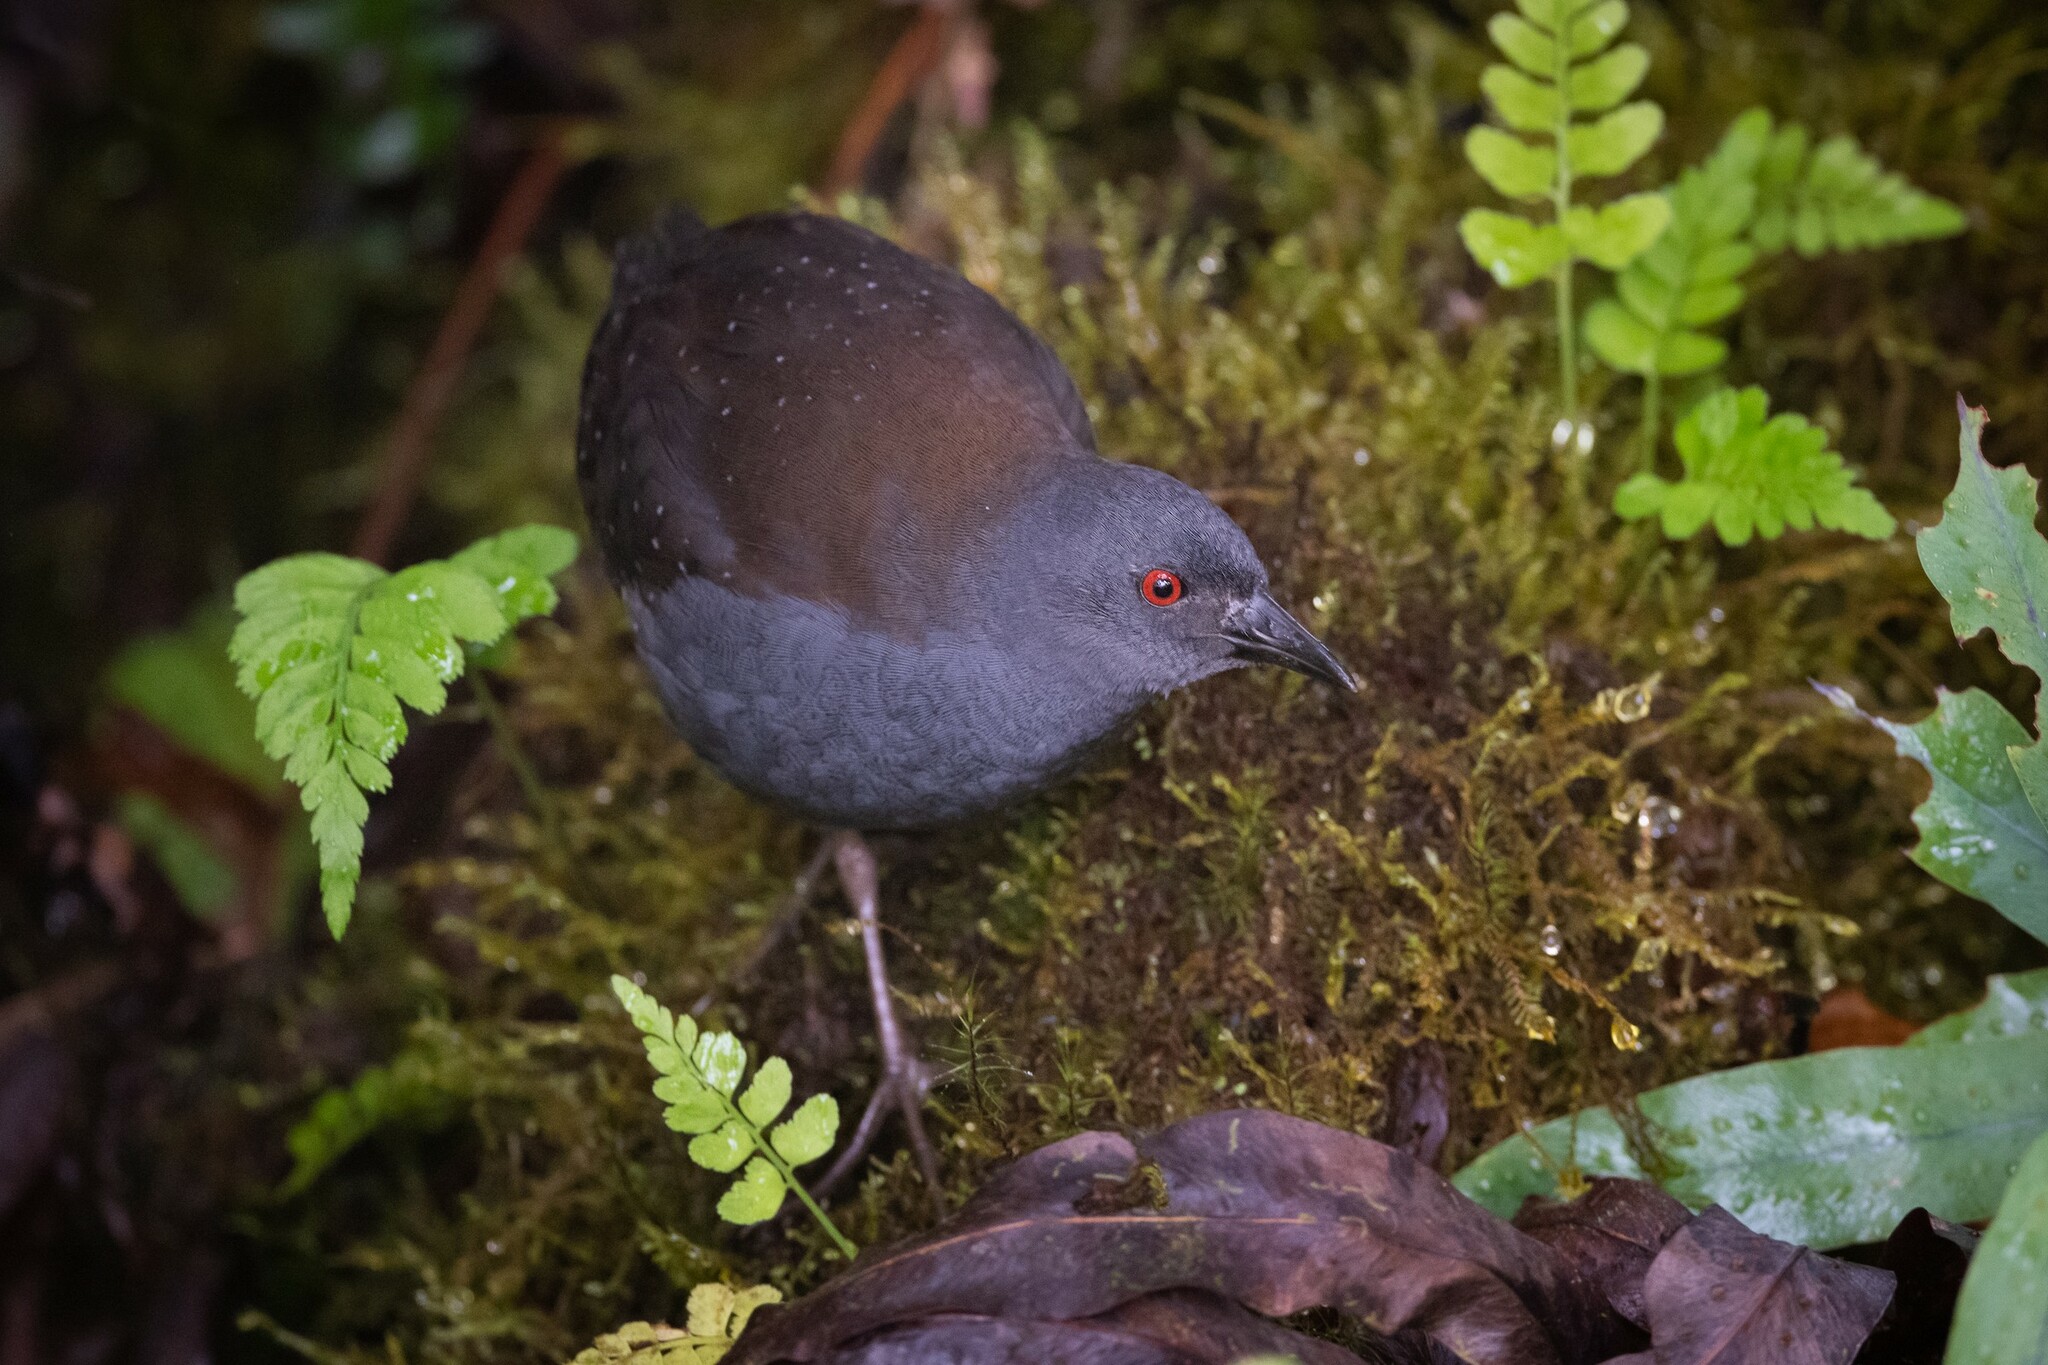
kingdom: Animalia
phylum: Chordata
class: Aves
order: Gruiformes
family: Rallidae
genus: Laterallus
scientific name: Laterallus spilonotus
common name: Galapagos crake
